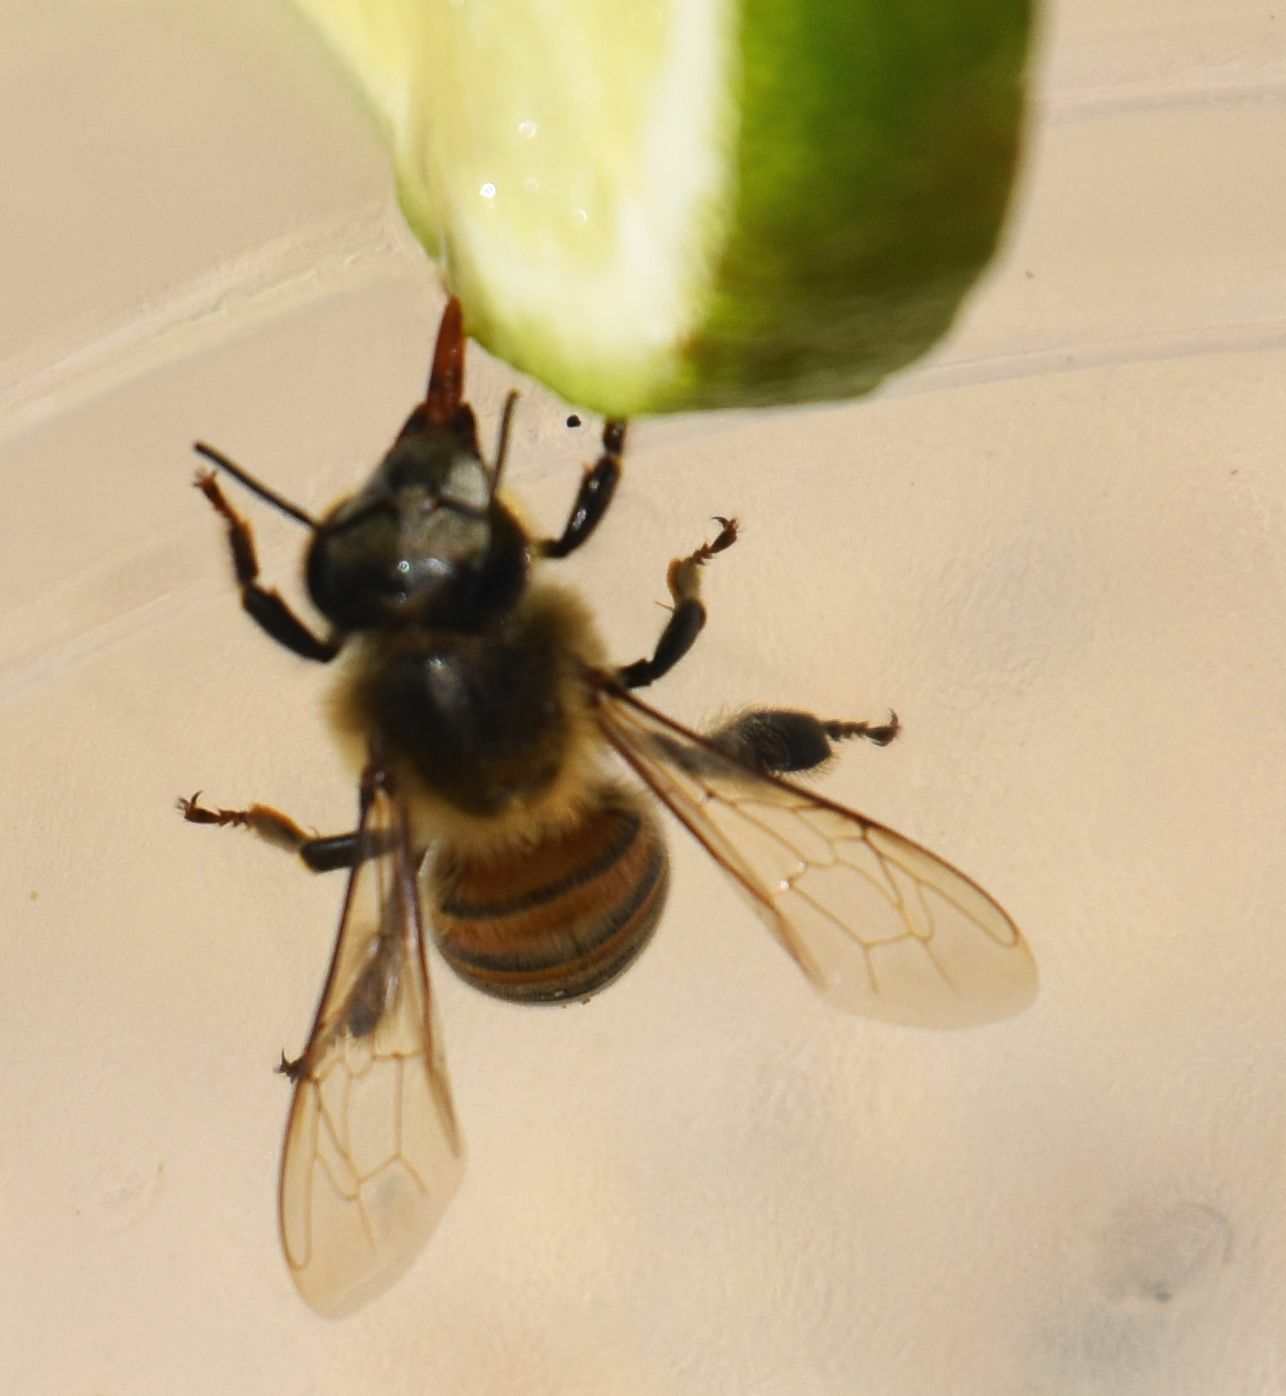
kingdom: Animalia
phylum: Arthropoda
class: Insecta
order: Hymenoptera
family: Apidae
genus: Apis
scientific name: Apis mellifera
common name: Honey bee
